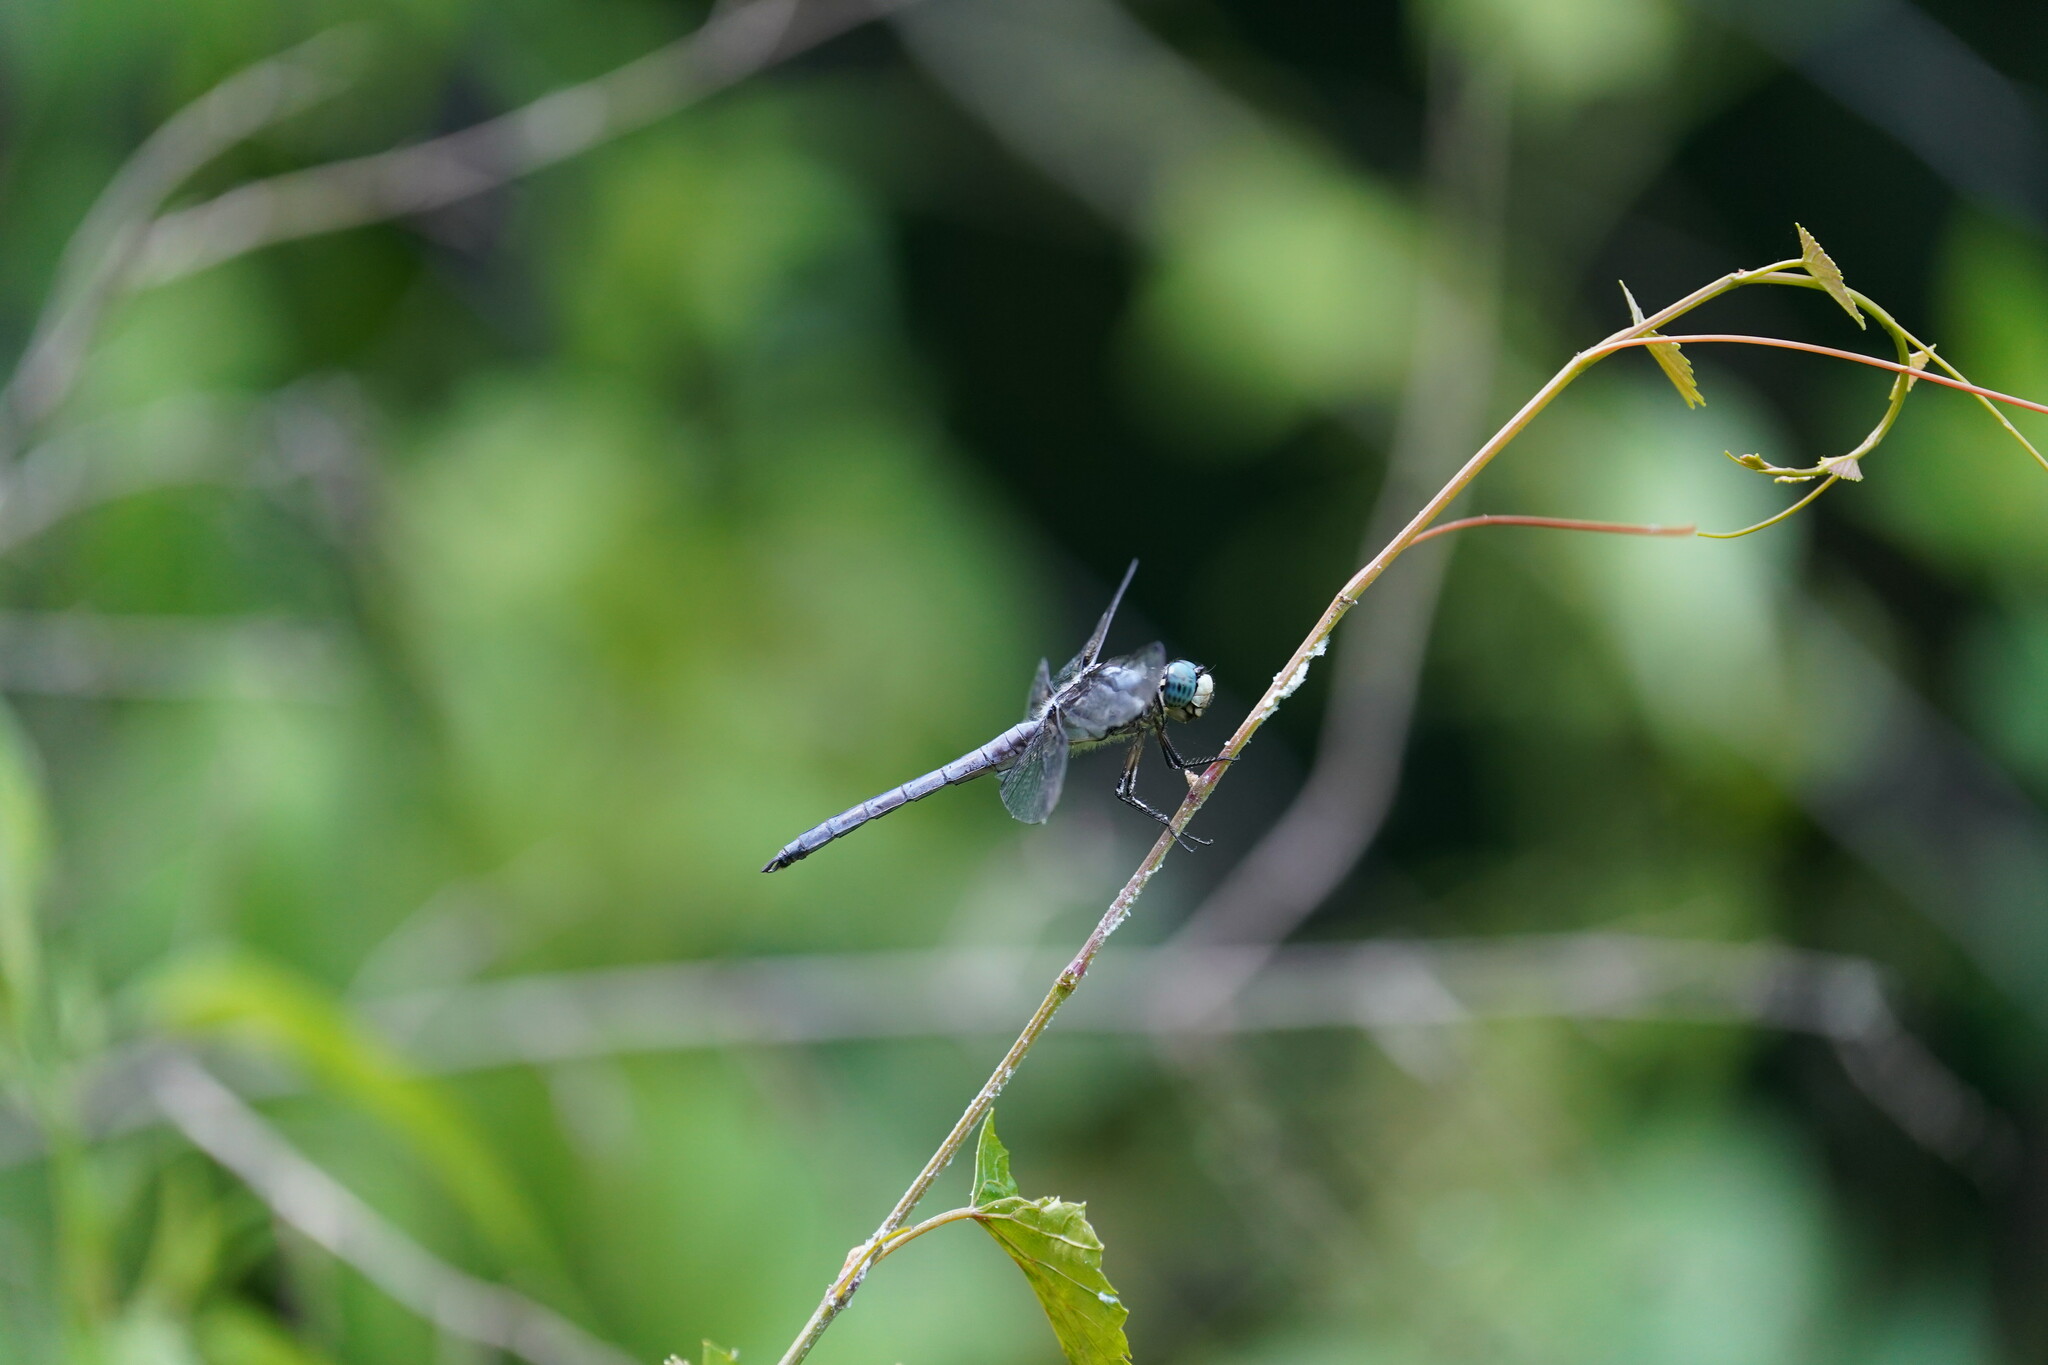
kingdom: Animalia
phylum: Arthropoda
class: Insecta
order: Odonata
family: Libellulidae
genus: Libellula
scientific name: Libellula vibrans
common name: Great blue skimmer
